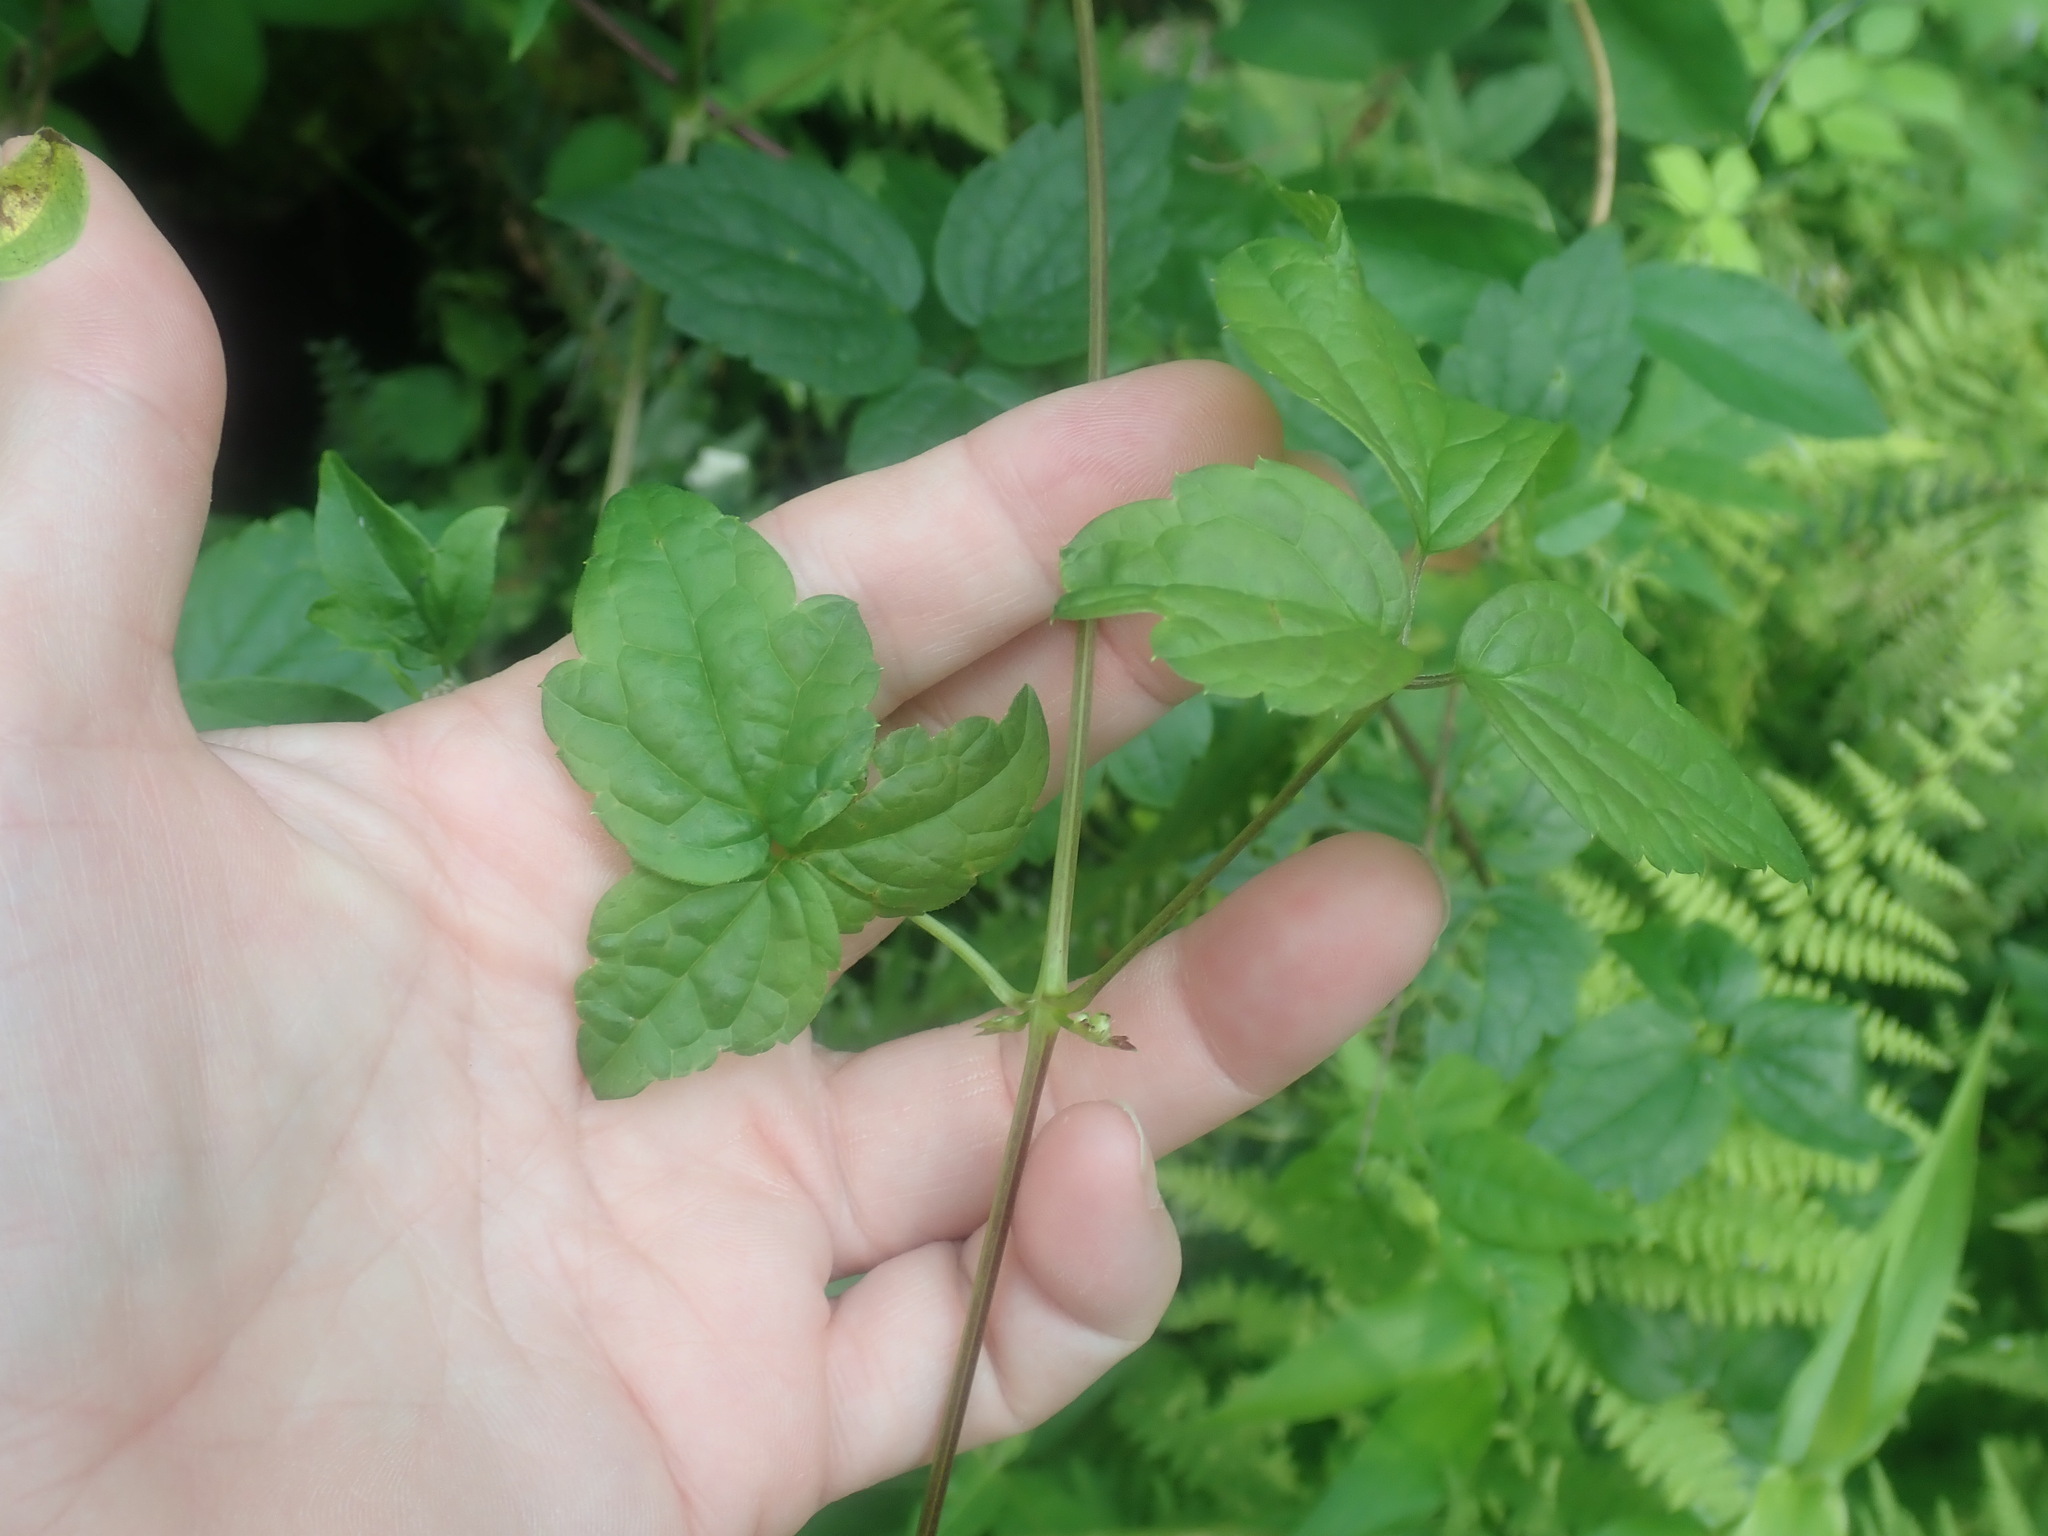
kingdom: Plantae
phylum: Tracheophyta
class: Magnoliopsida
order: Ranunculales
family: Ranunculaceae
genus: Clematis
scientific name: Clematis virginiana
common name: Virgin's-bower
